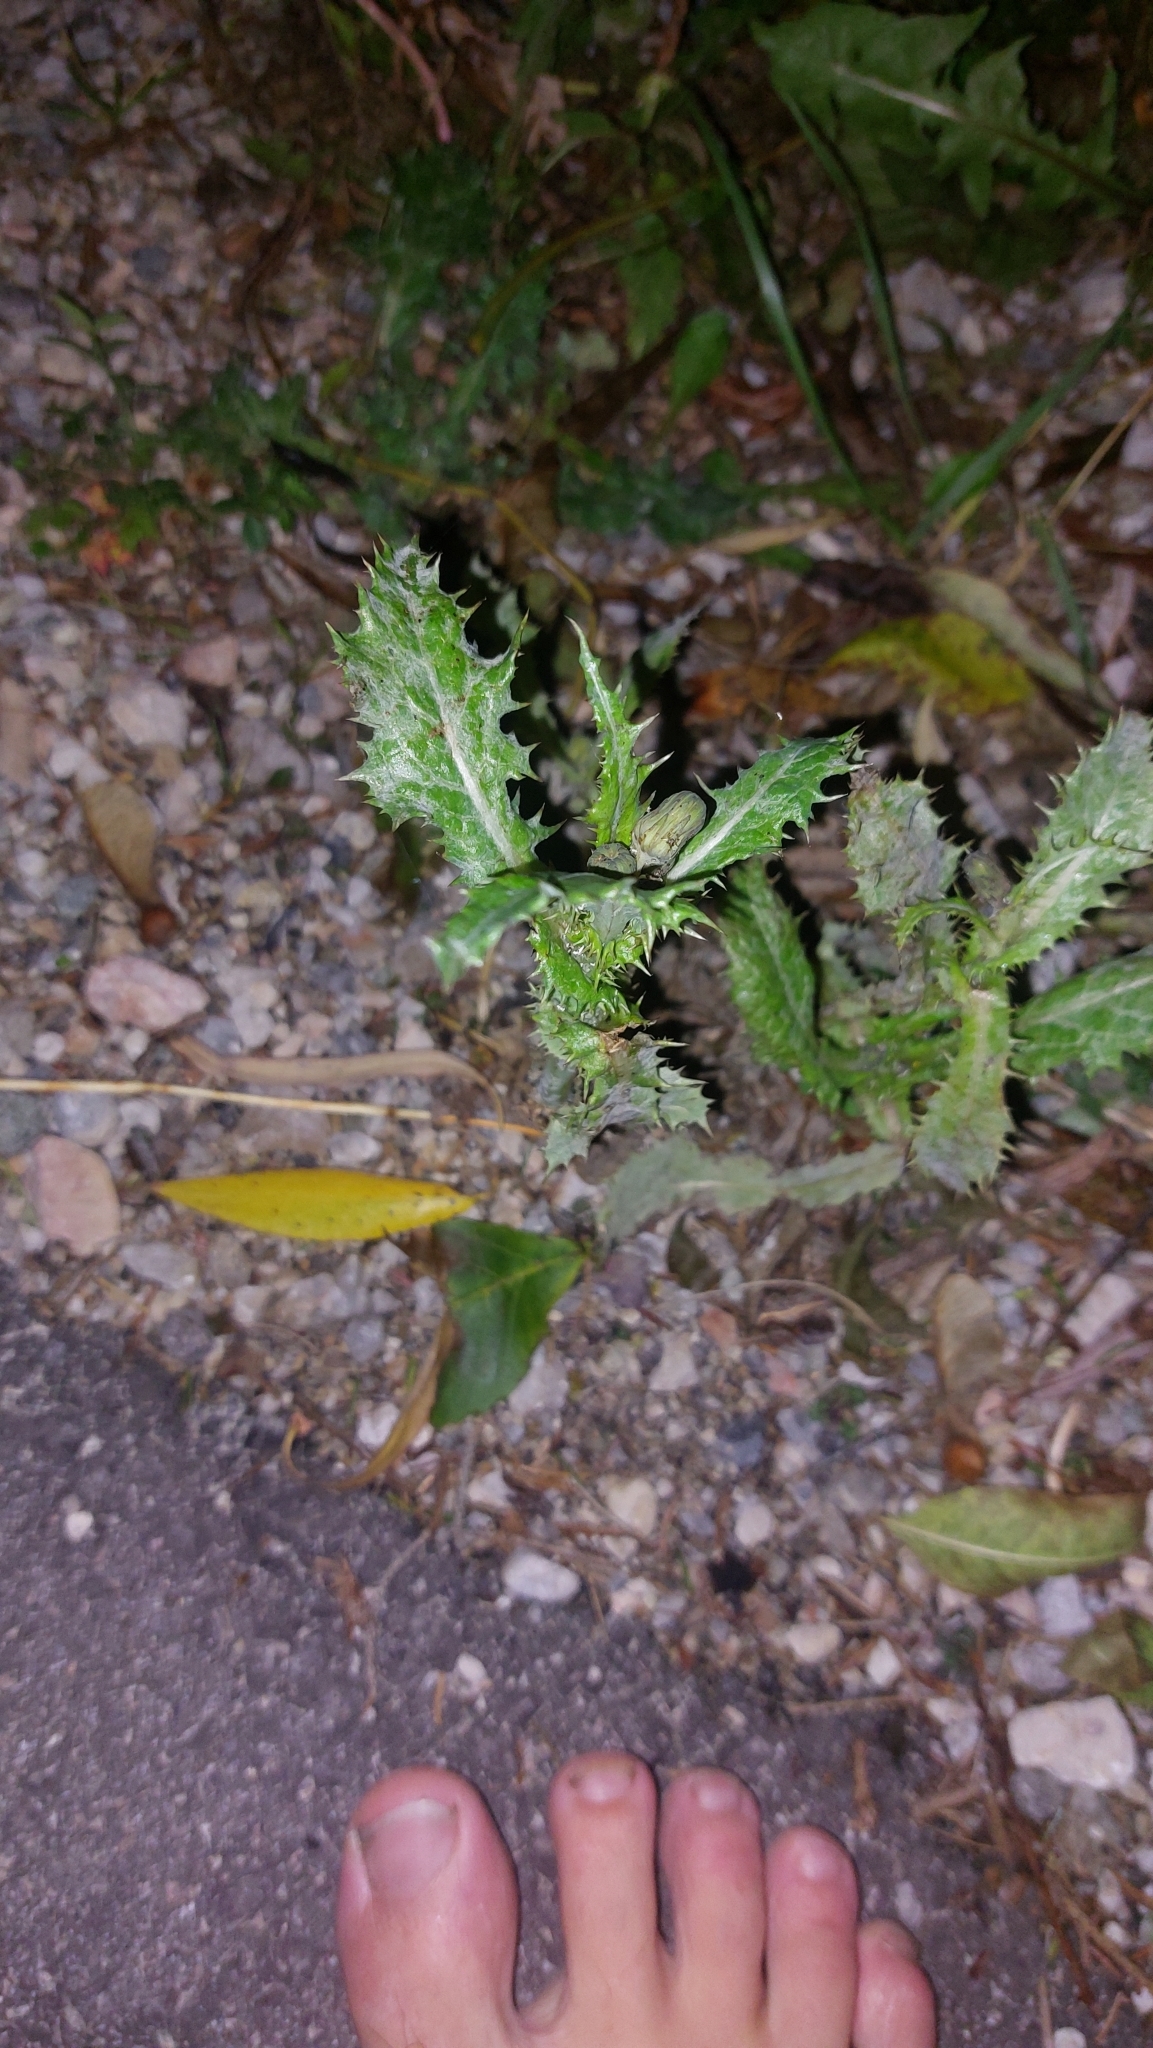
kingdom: Plantae
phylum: Tracheophyta
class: Magnoliopsida
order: Asterales
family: Asteraceae
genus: Sonchus
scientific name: Sonchus asper
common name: Prickly sow-thistle
